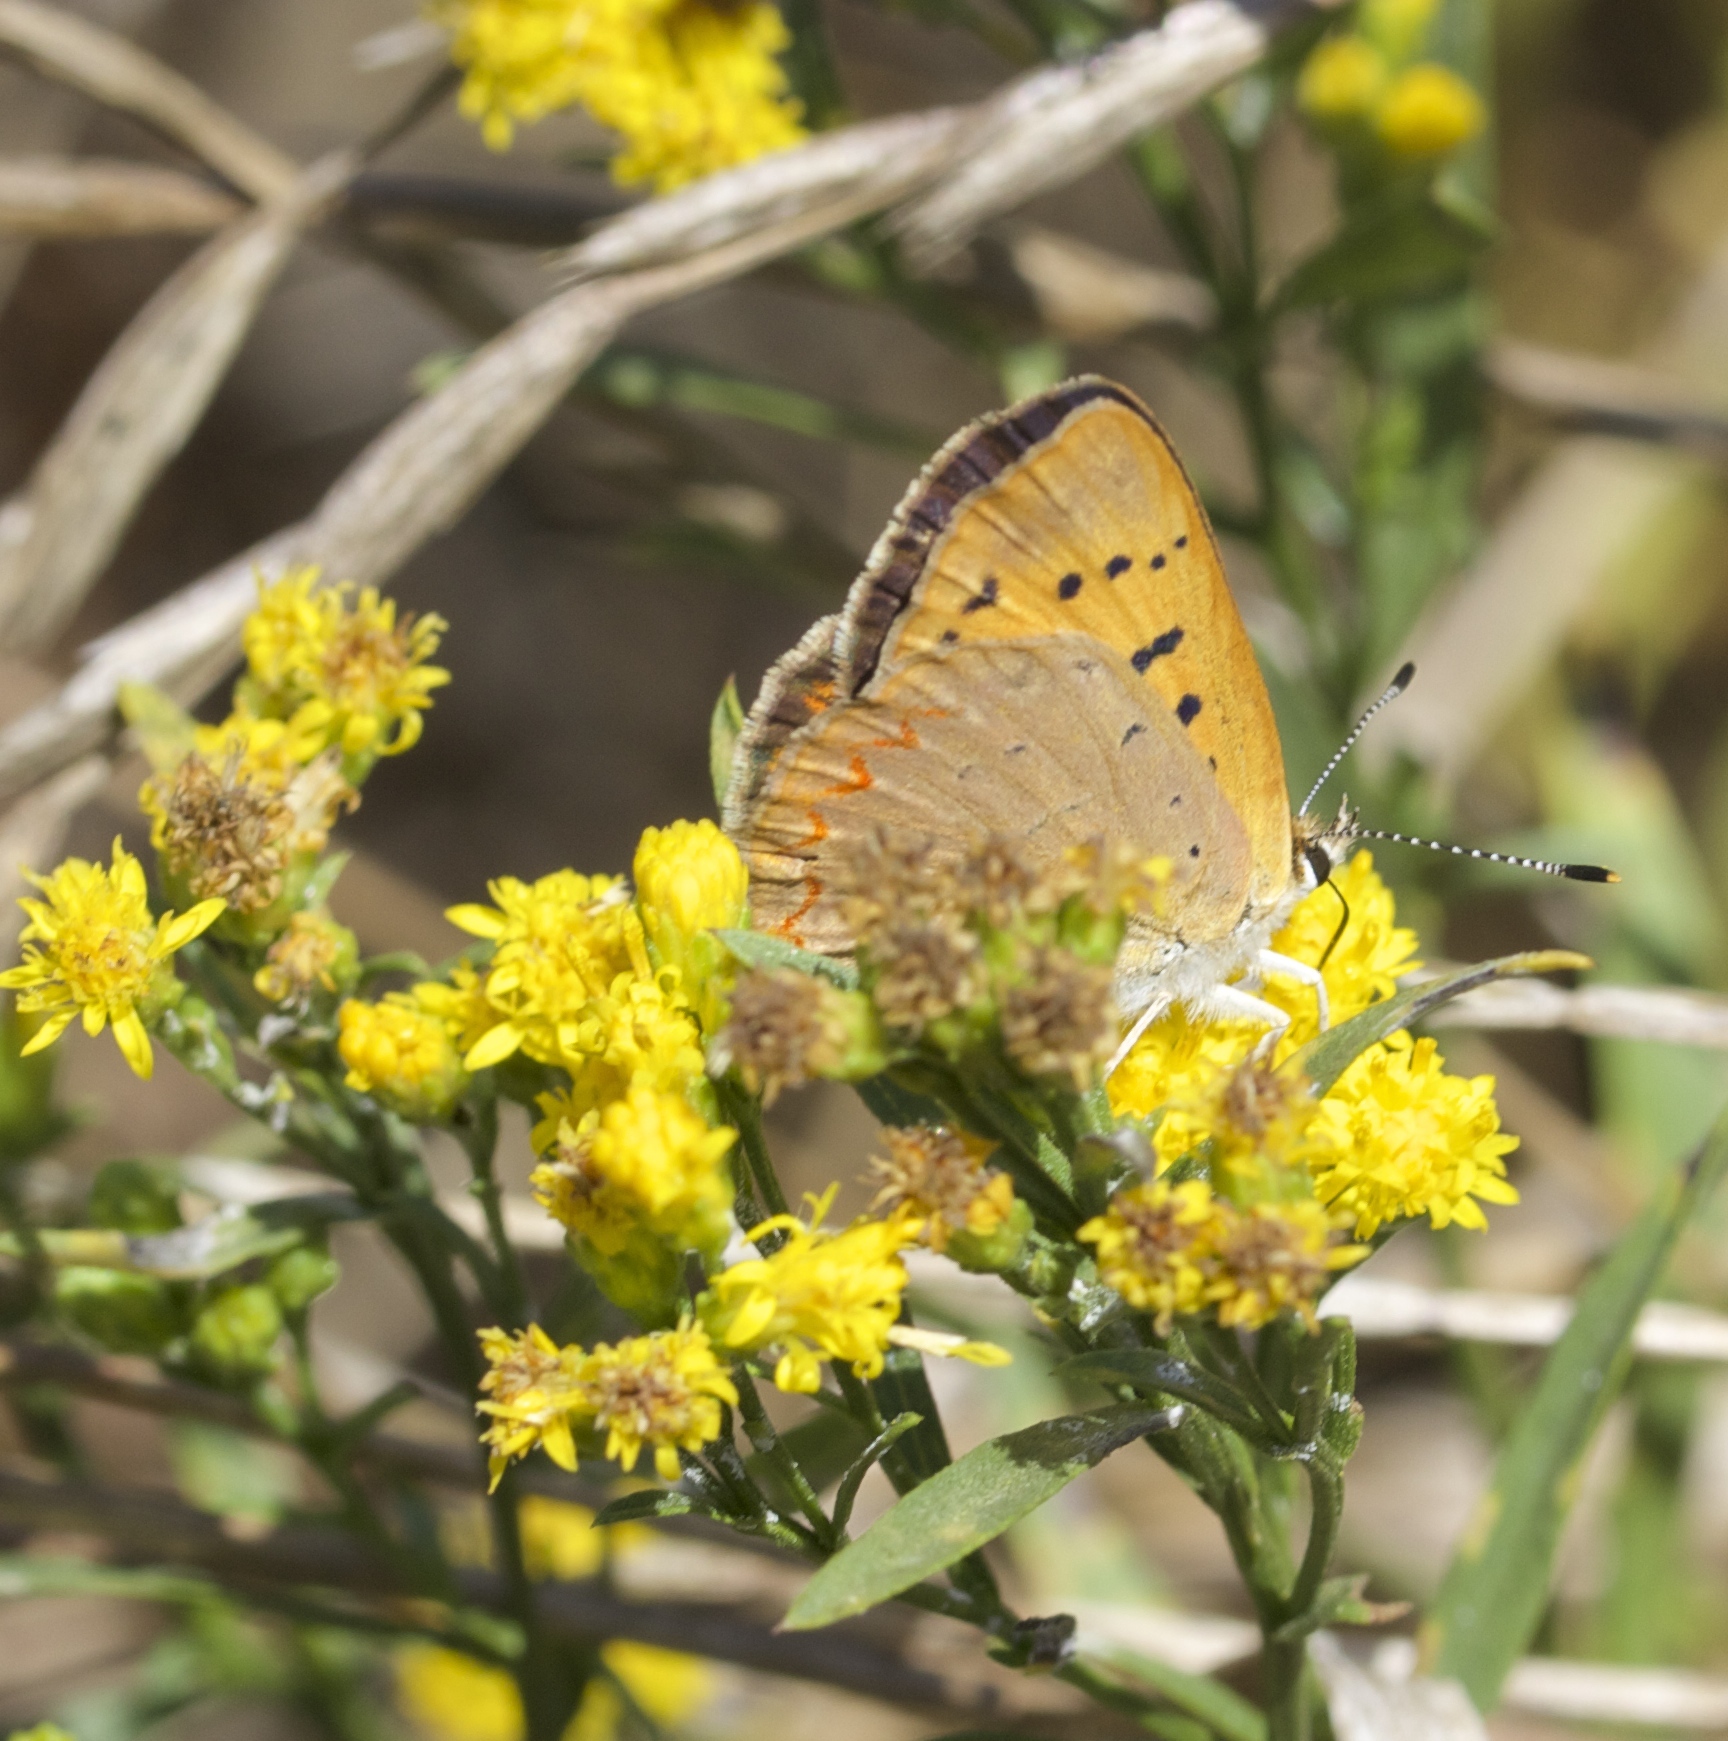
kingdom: Animalia
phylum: Arthropoda
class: Insecta
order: Lepidoptera
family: Lycaenidae
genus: Tharsalea
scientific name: Tharsalea helloides
